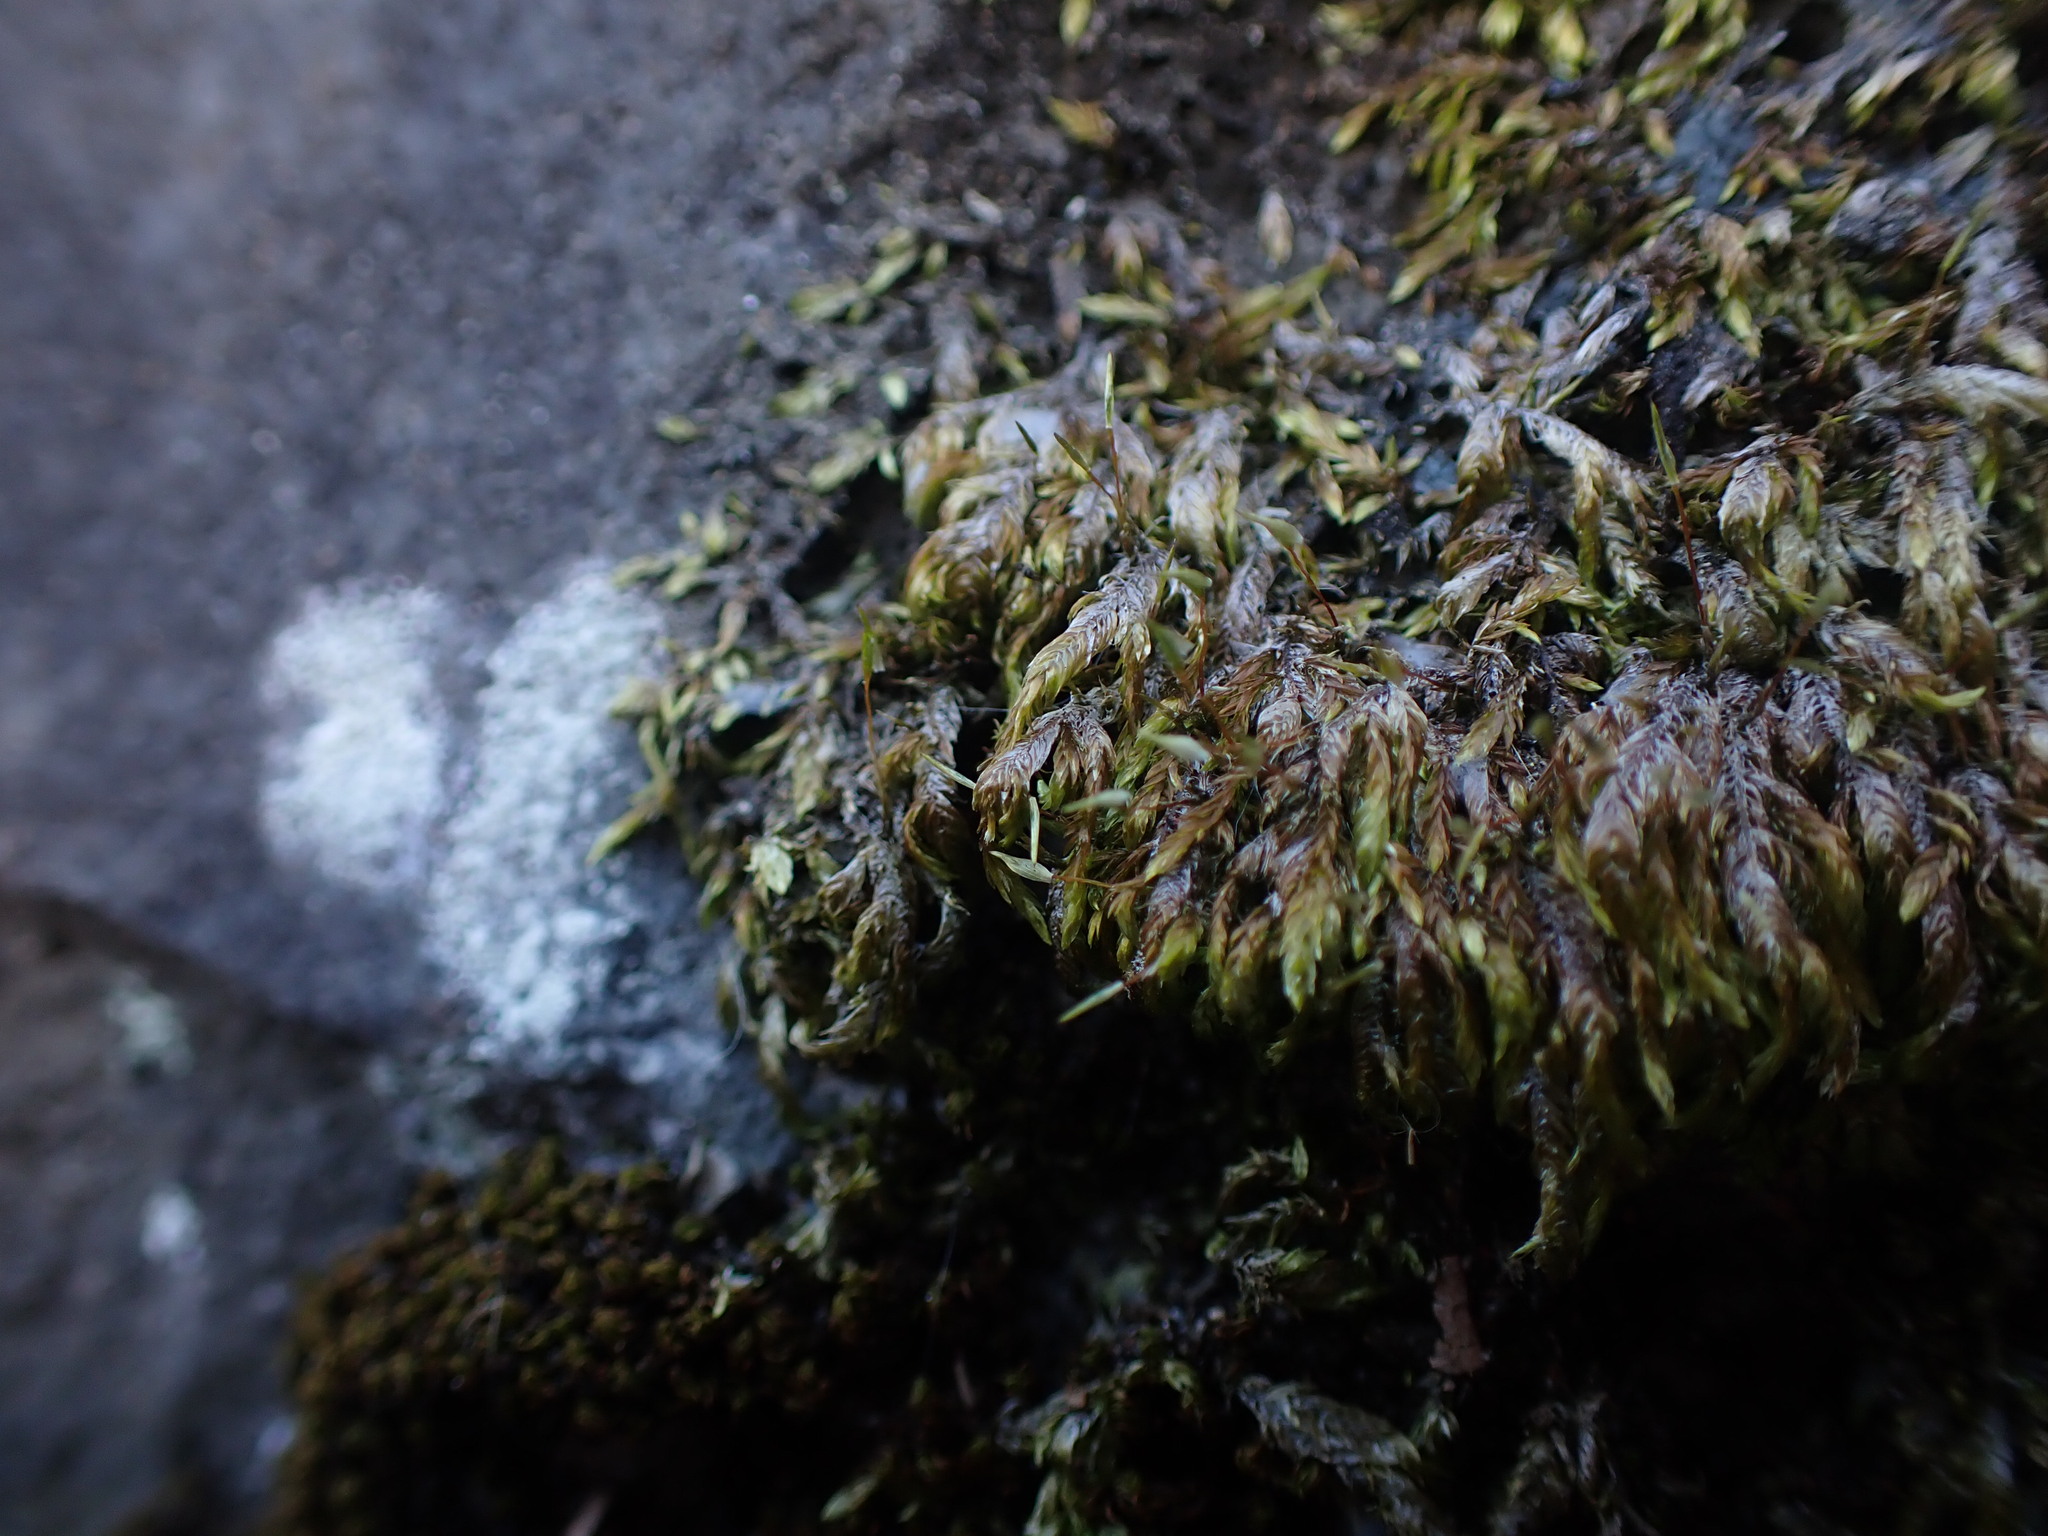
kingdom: Plantae
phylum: Bryophyta
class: Bryopsida
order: Hypnales
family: Entodontaceae
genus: Entodon
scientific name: Entodon challengeri
